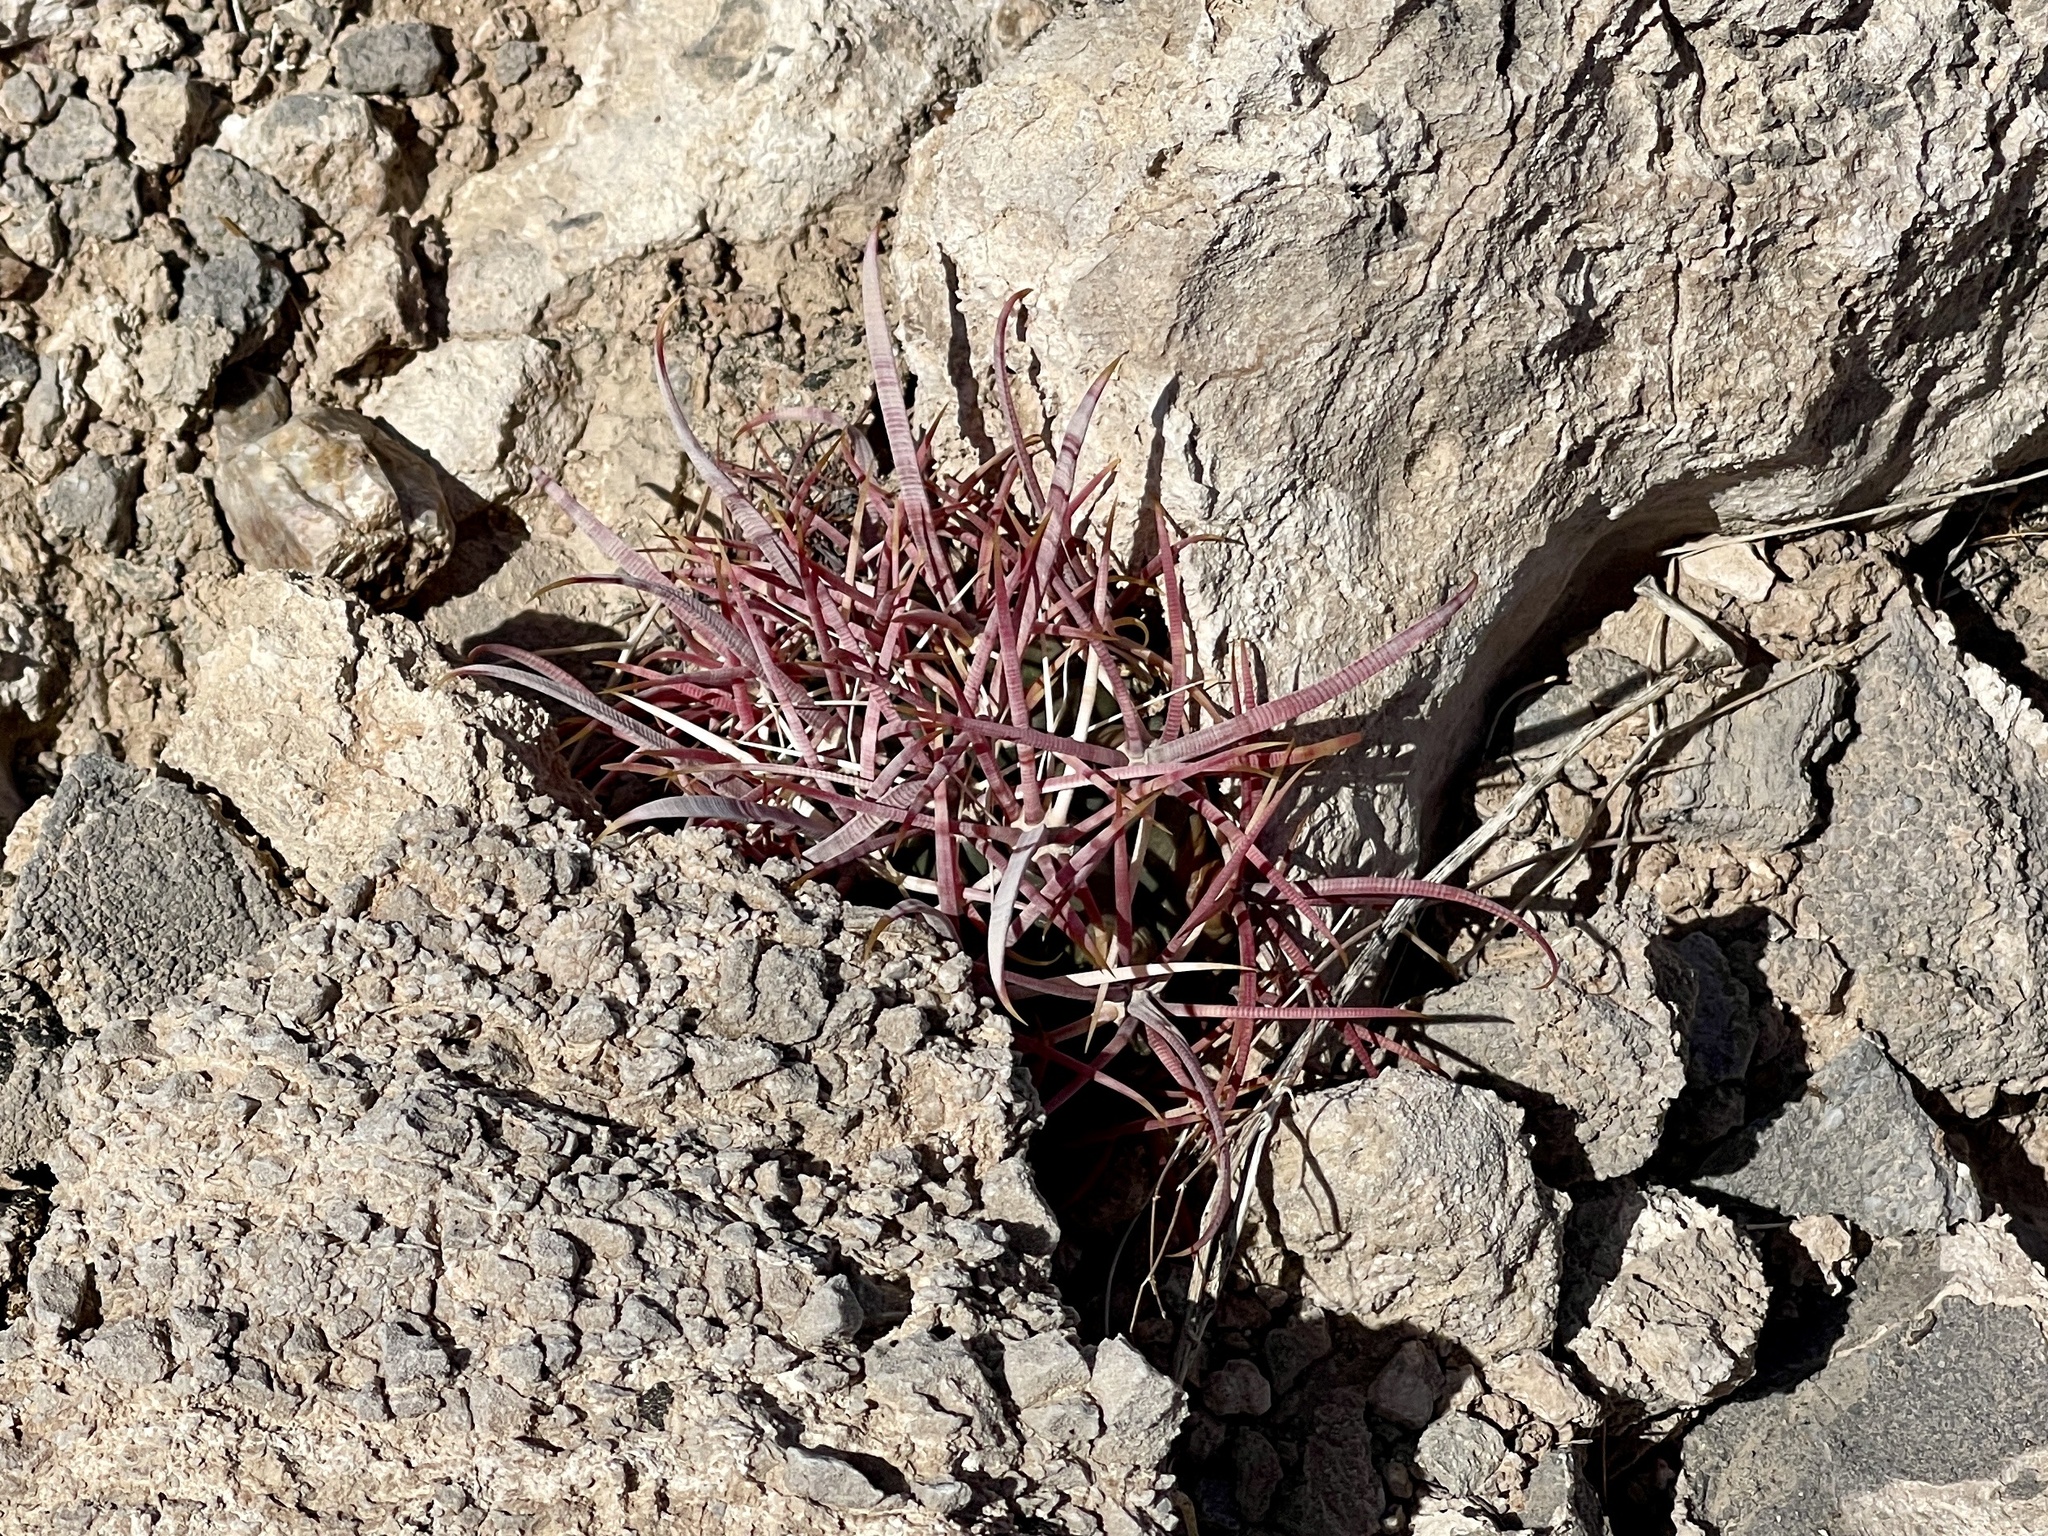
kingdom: Plantae
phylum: Tracheophyta
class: Magnoliopsida
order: Caryophyllales
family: Cactaceae
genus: Ferocactus
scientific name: Ferocactus cylindraceus
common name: California barrel cactus
